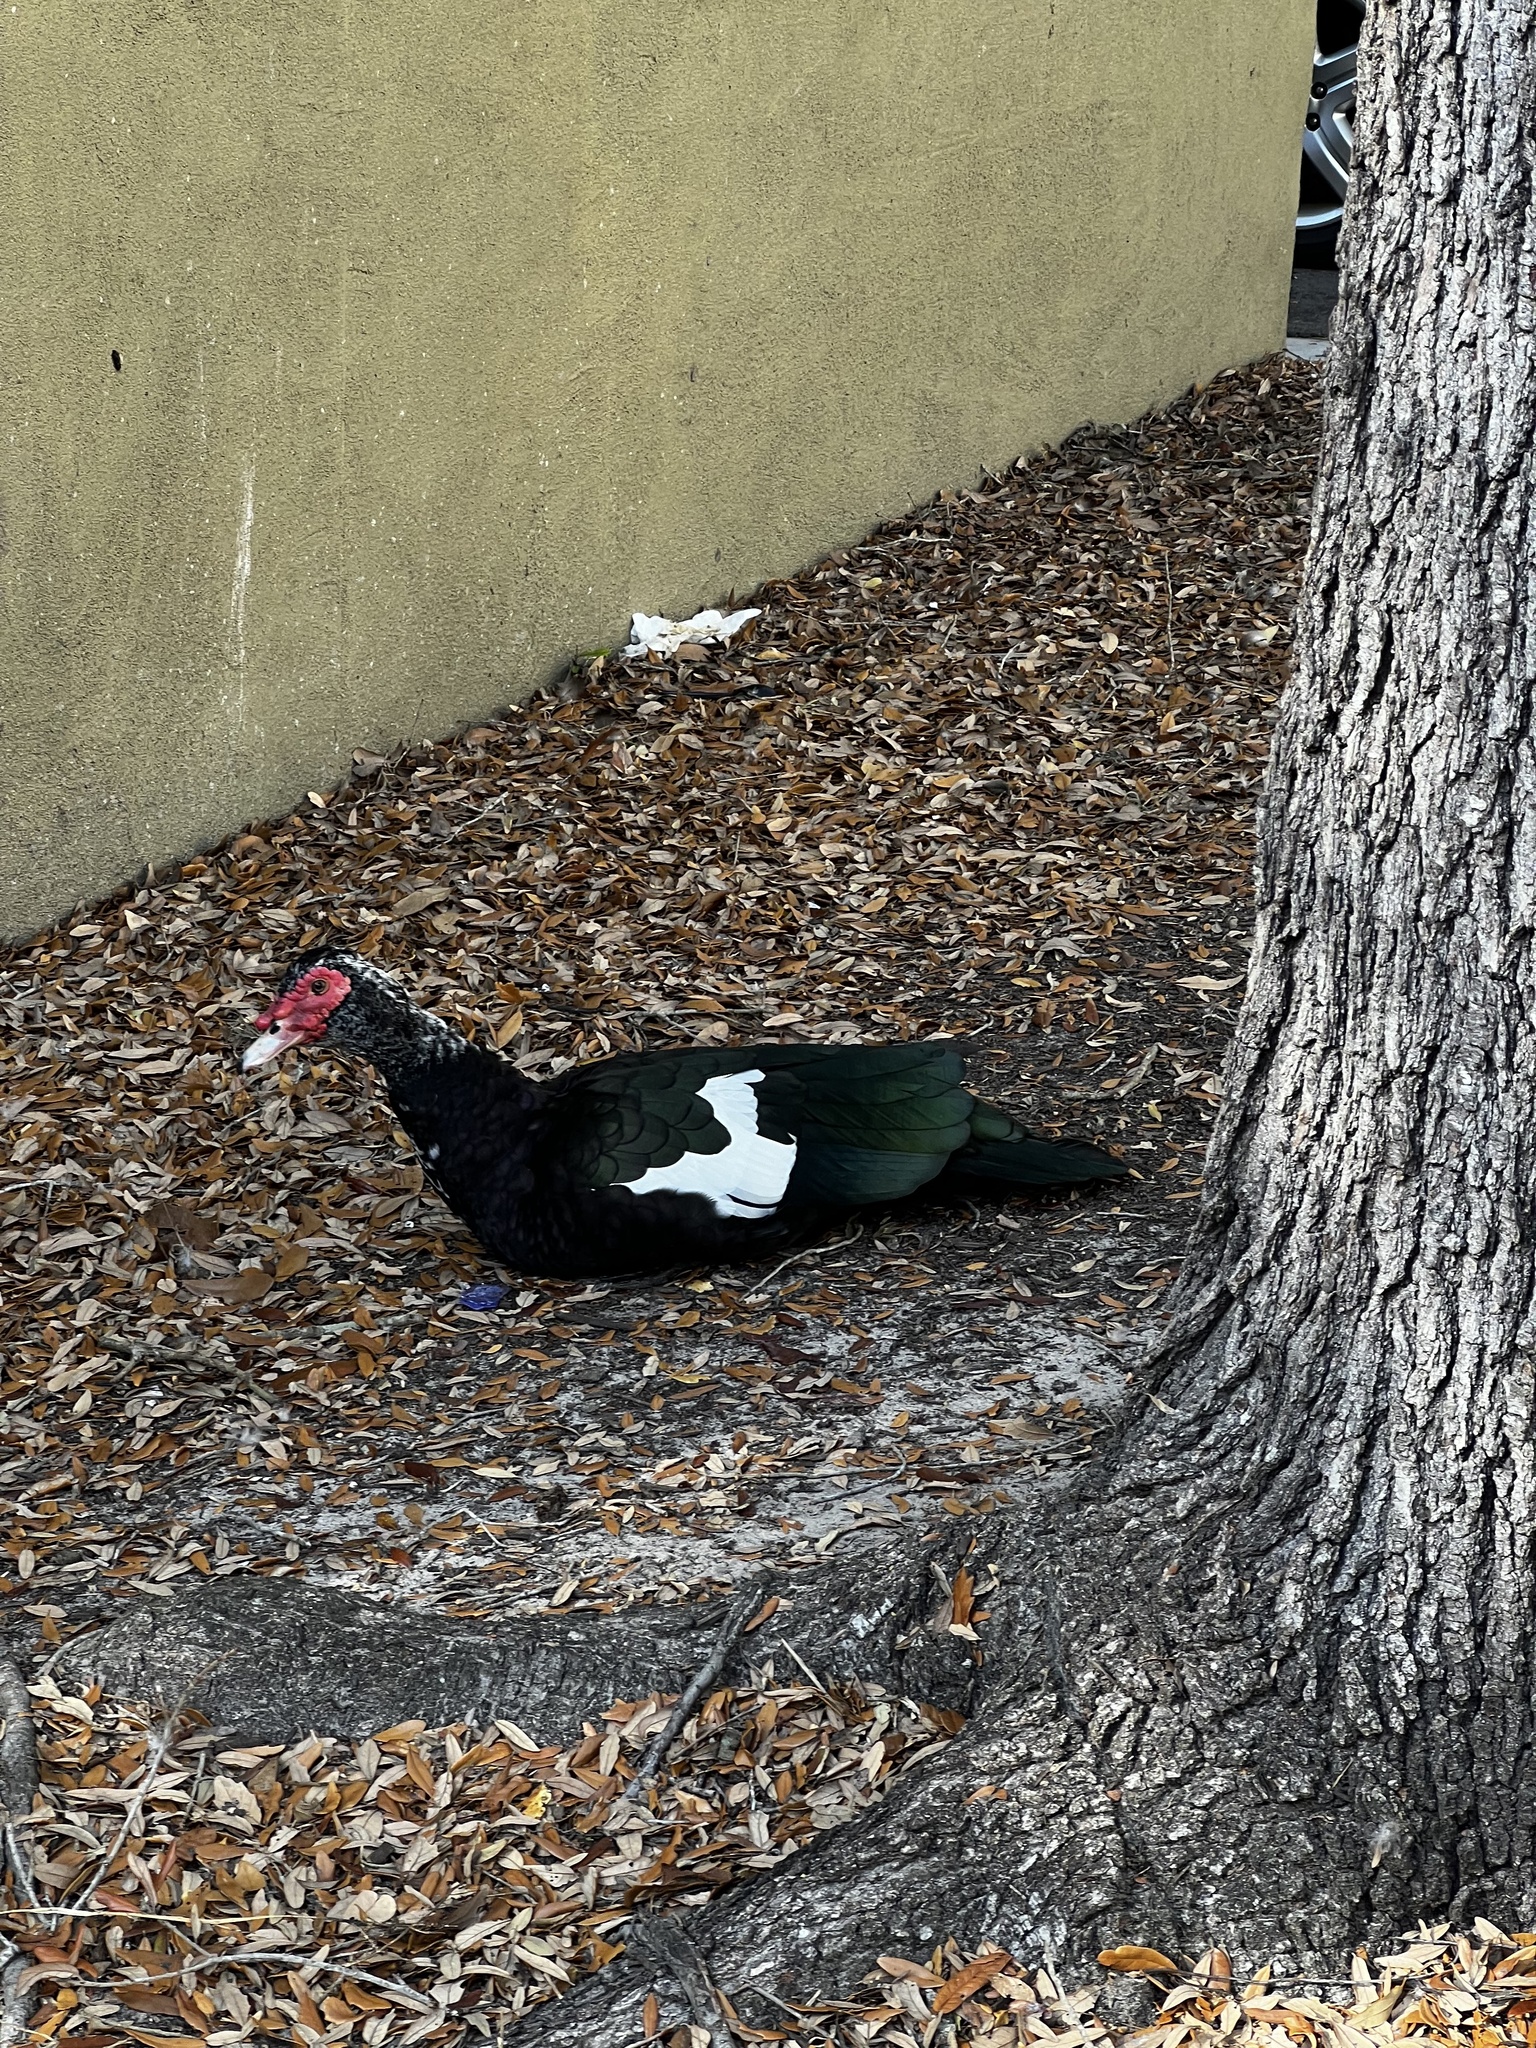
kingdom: Animalia
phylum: Chordata
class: Aves
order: Anseriformes
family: Anatidae
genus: Cairina
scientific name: Cairina moschata
